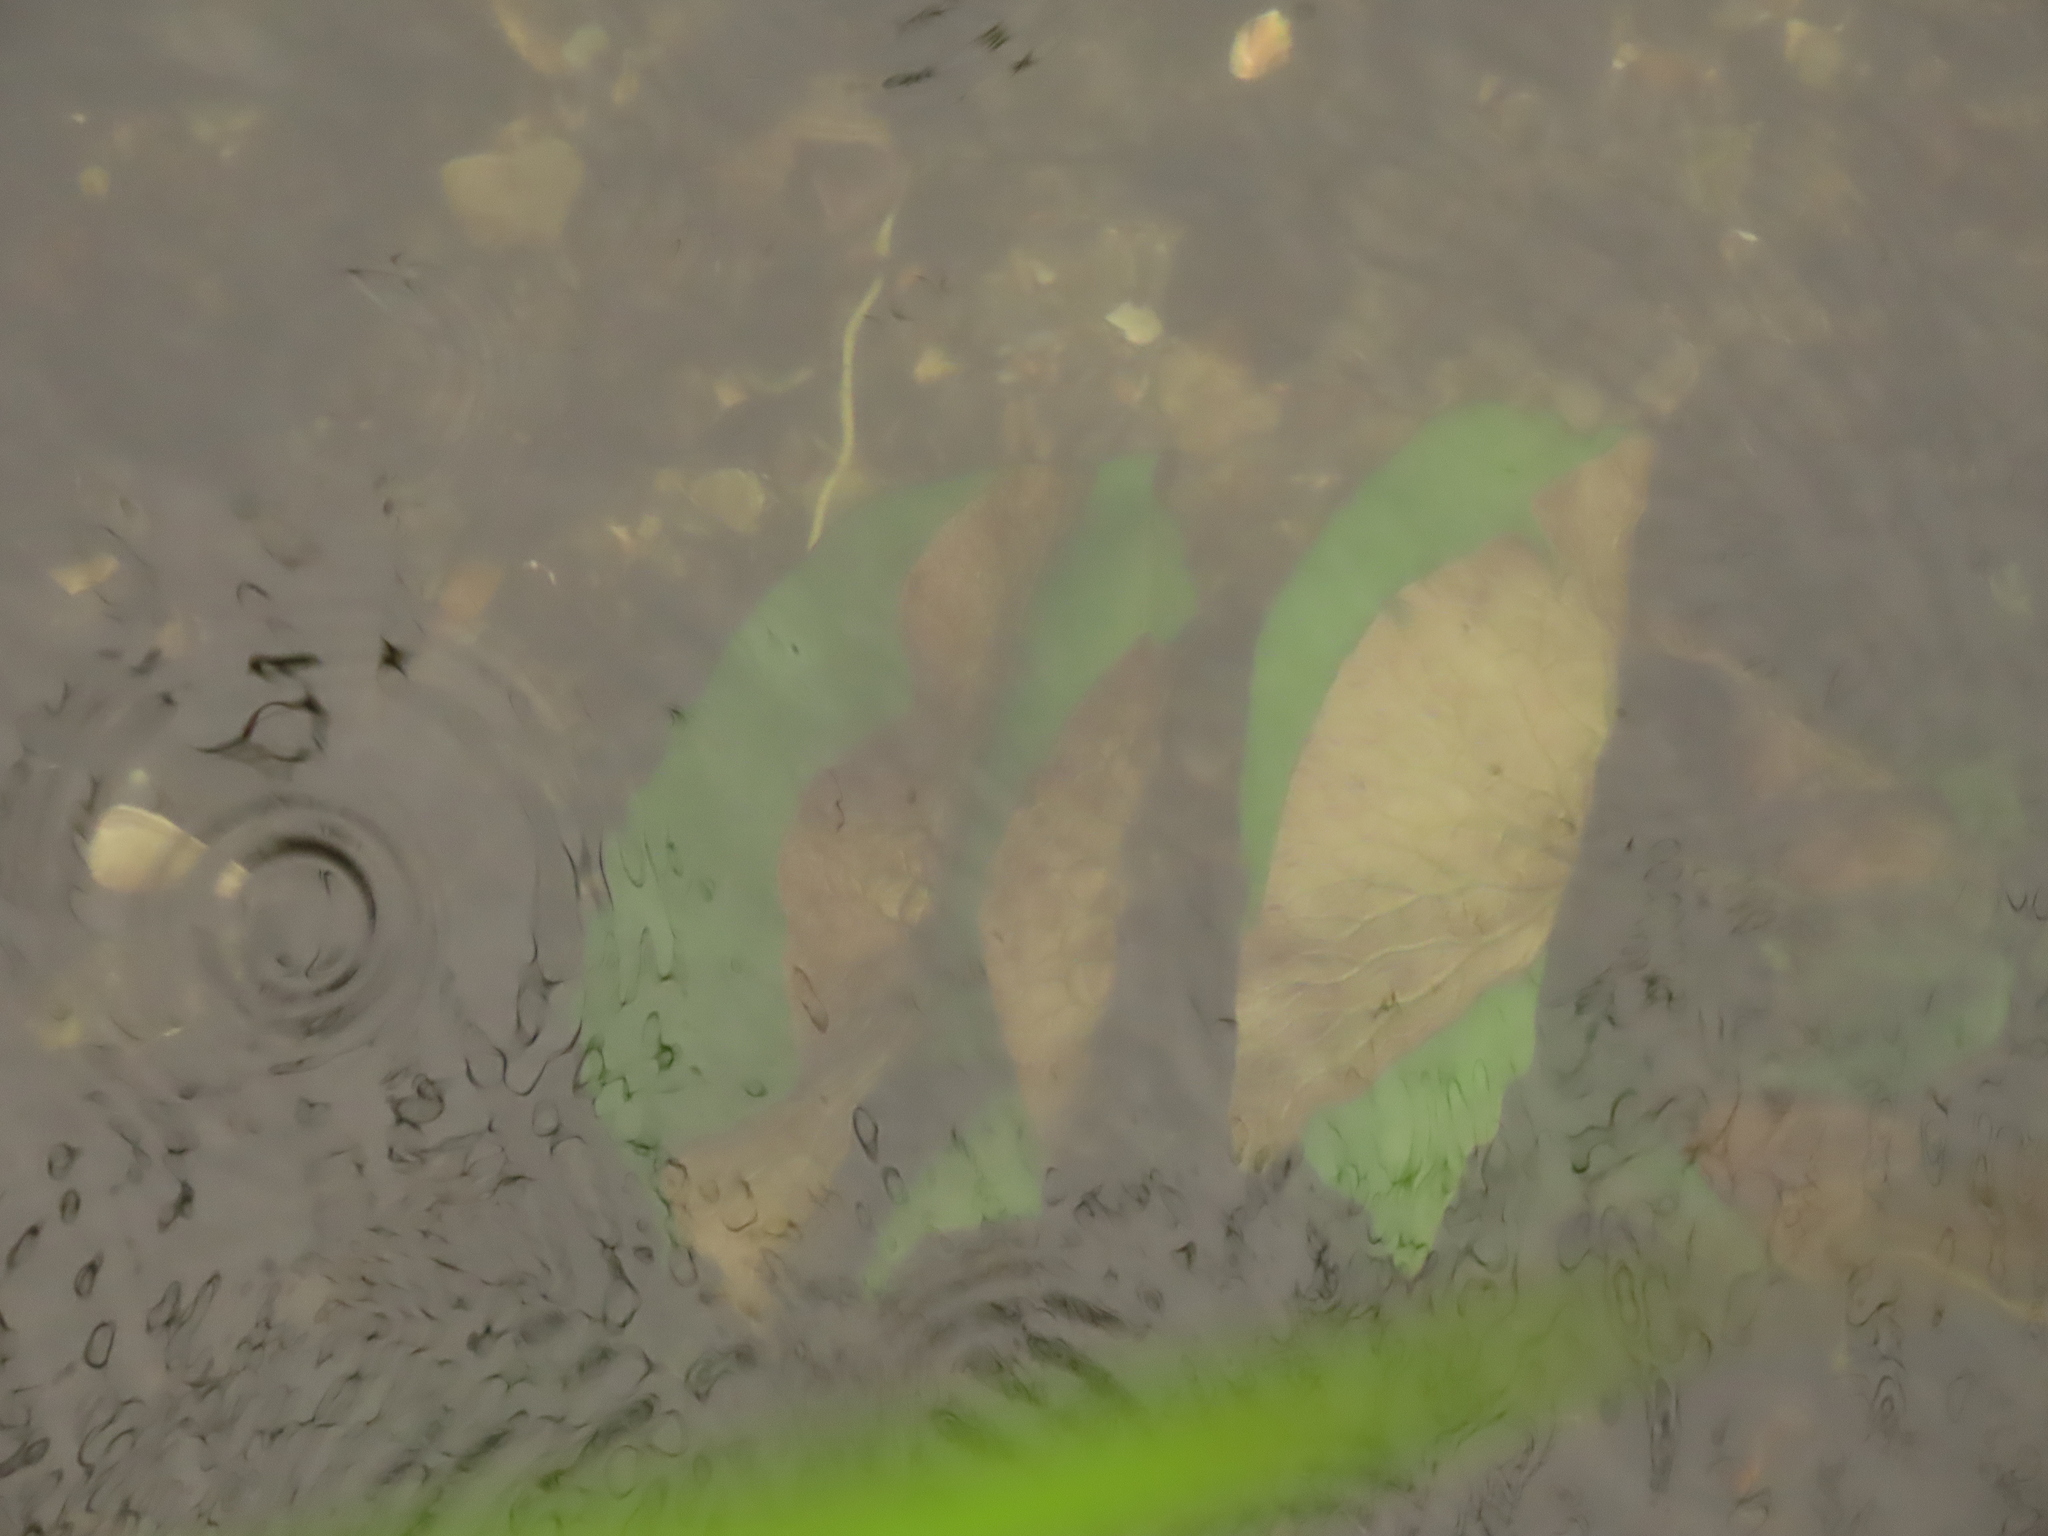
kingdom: Plantae
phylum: Tracheophyta
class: Magnoliopsida
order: Nymphaeales
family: Nymphaeaceae
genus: Nymphaea
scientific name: Nymphaea lotus
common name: White egyptian lotus
